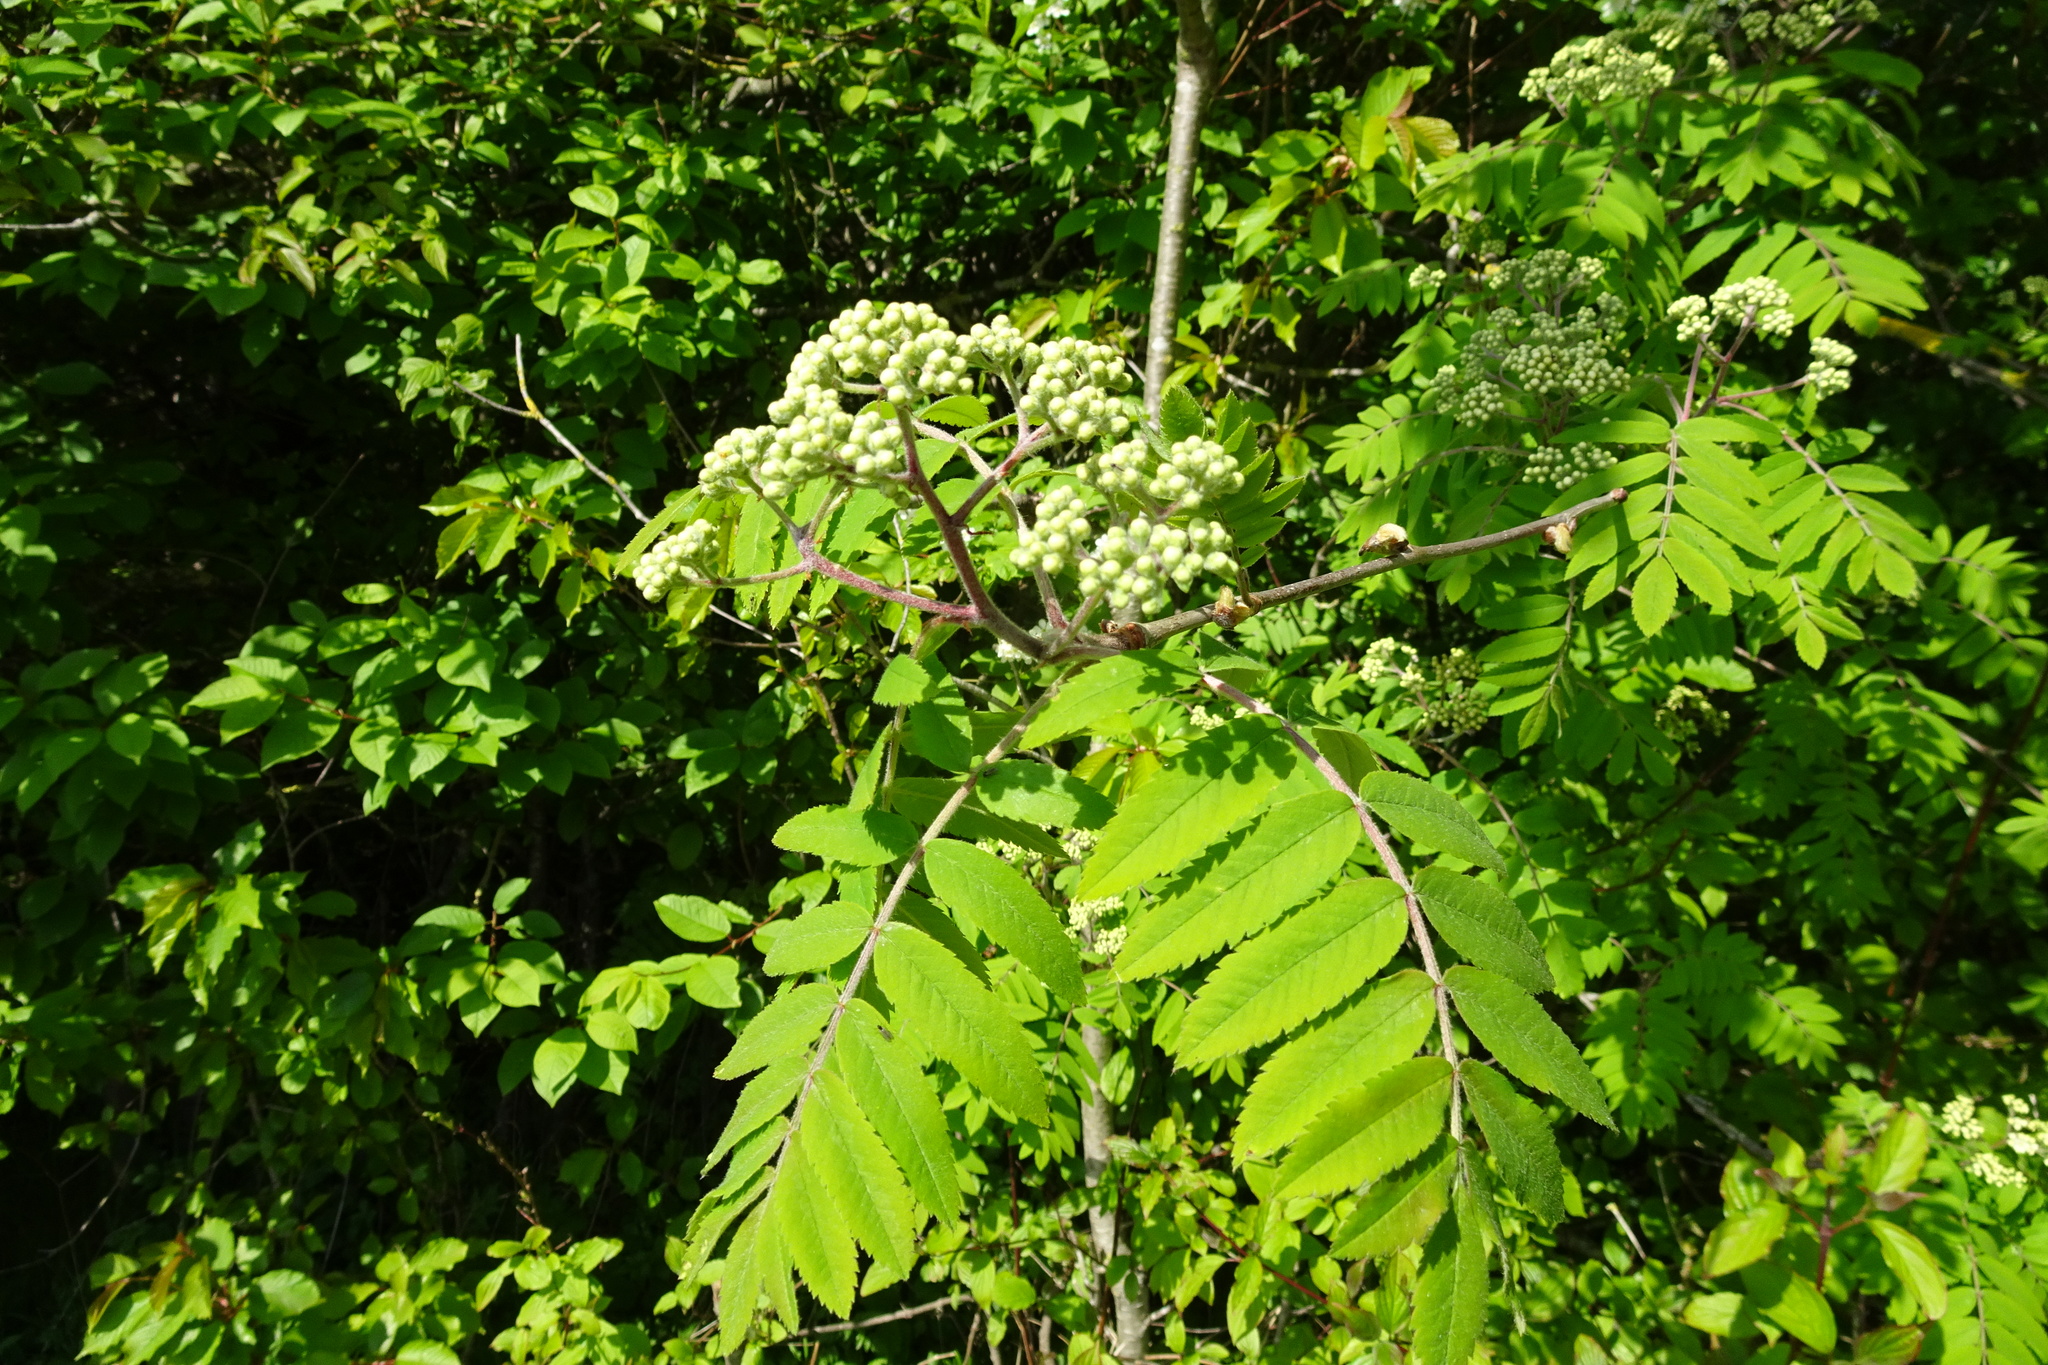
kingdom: Plantae
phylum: Tracheophyta
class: Magnoliopsida
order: Rosales
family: Rosaceae
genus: Sorbus
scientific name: Sorbus aucuparia
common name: Rowan
